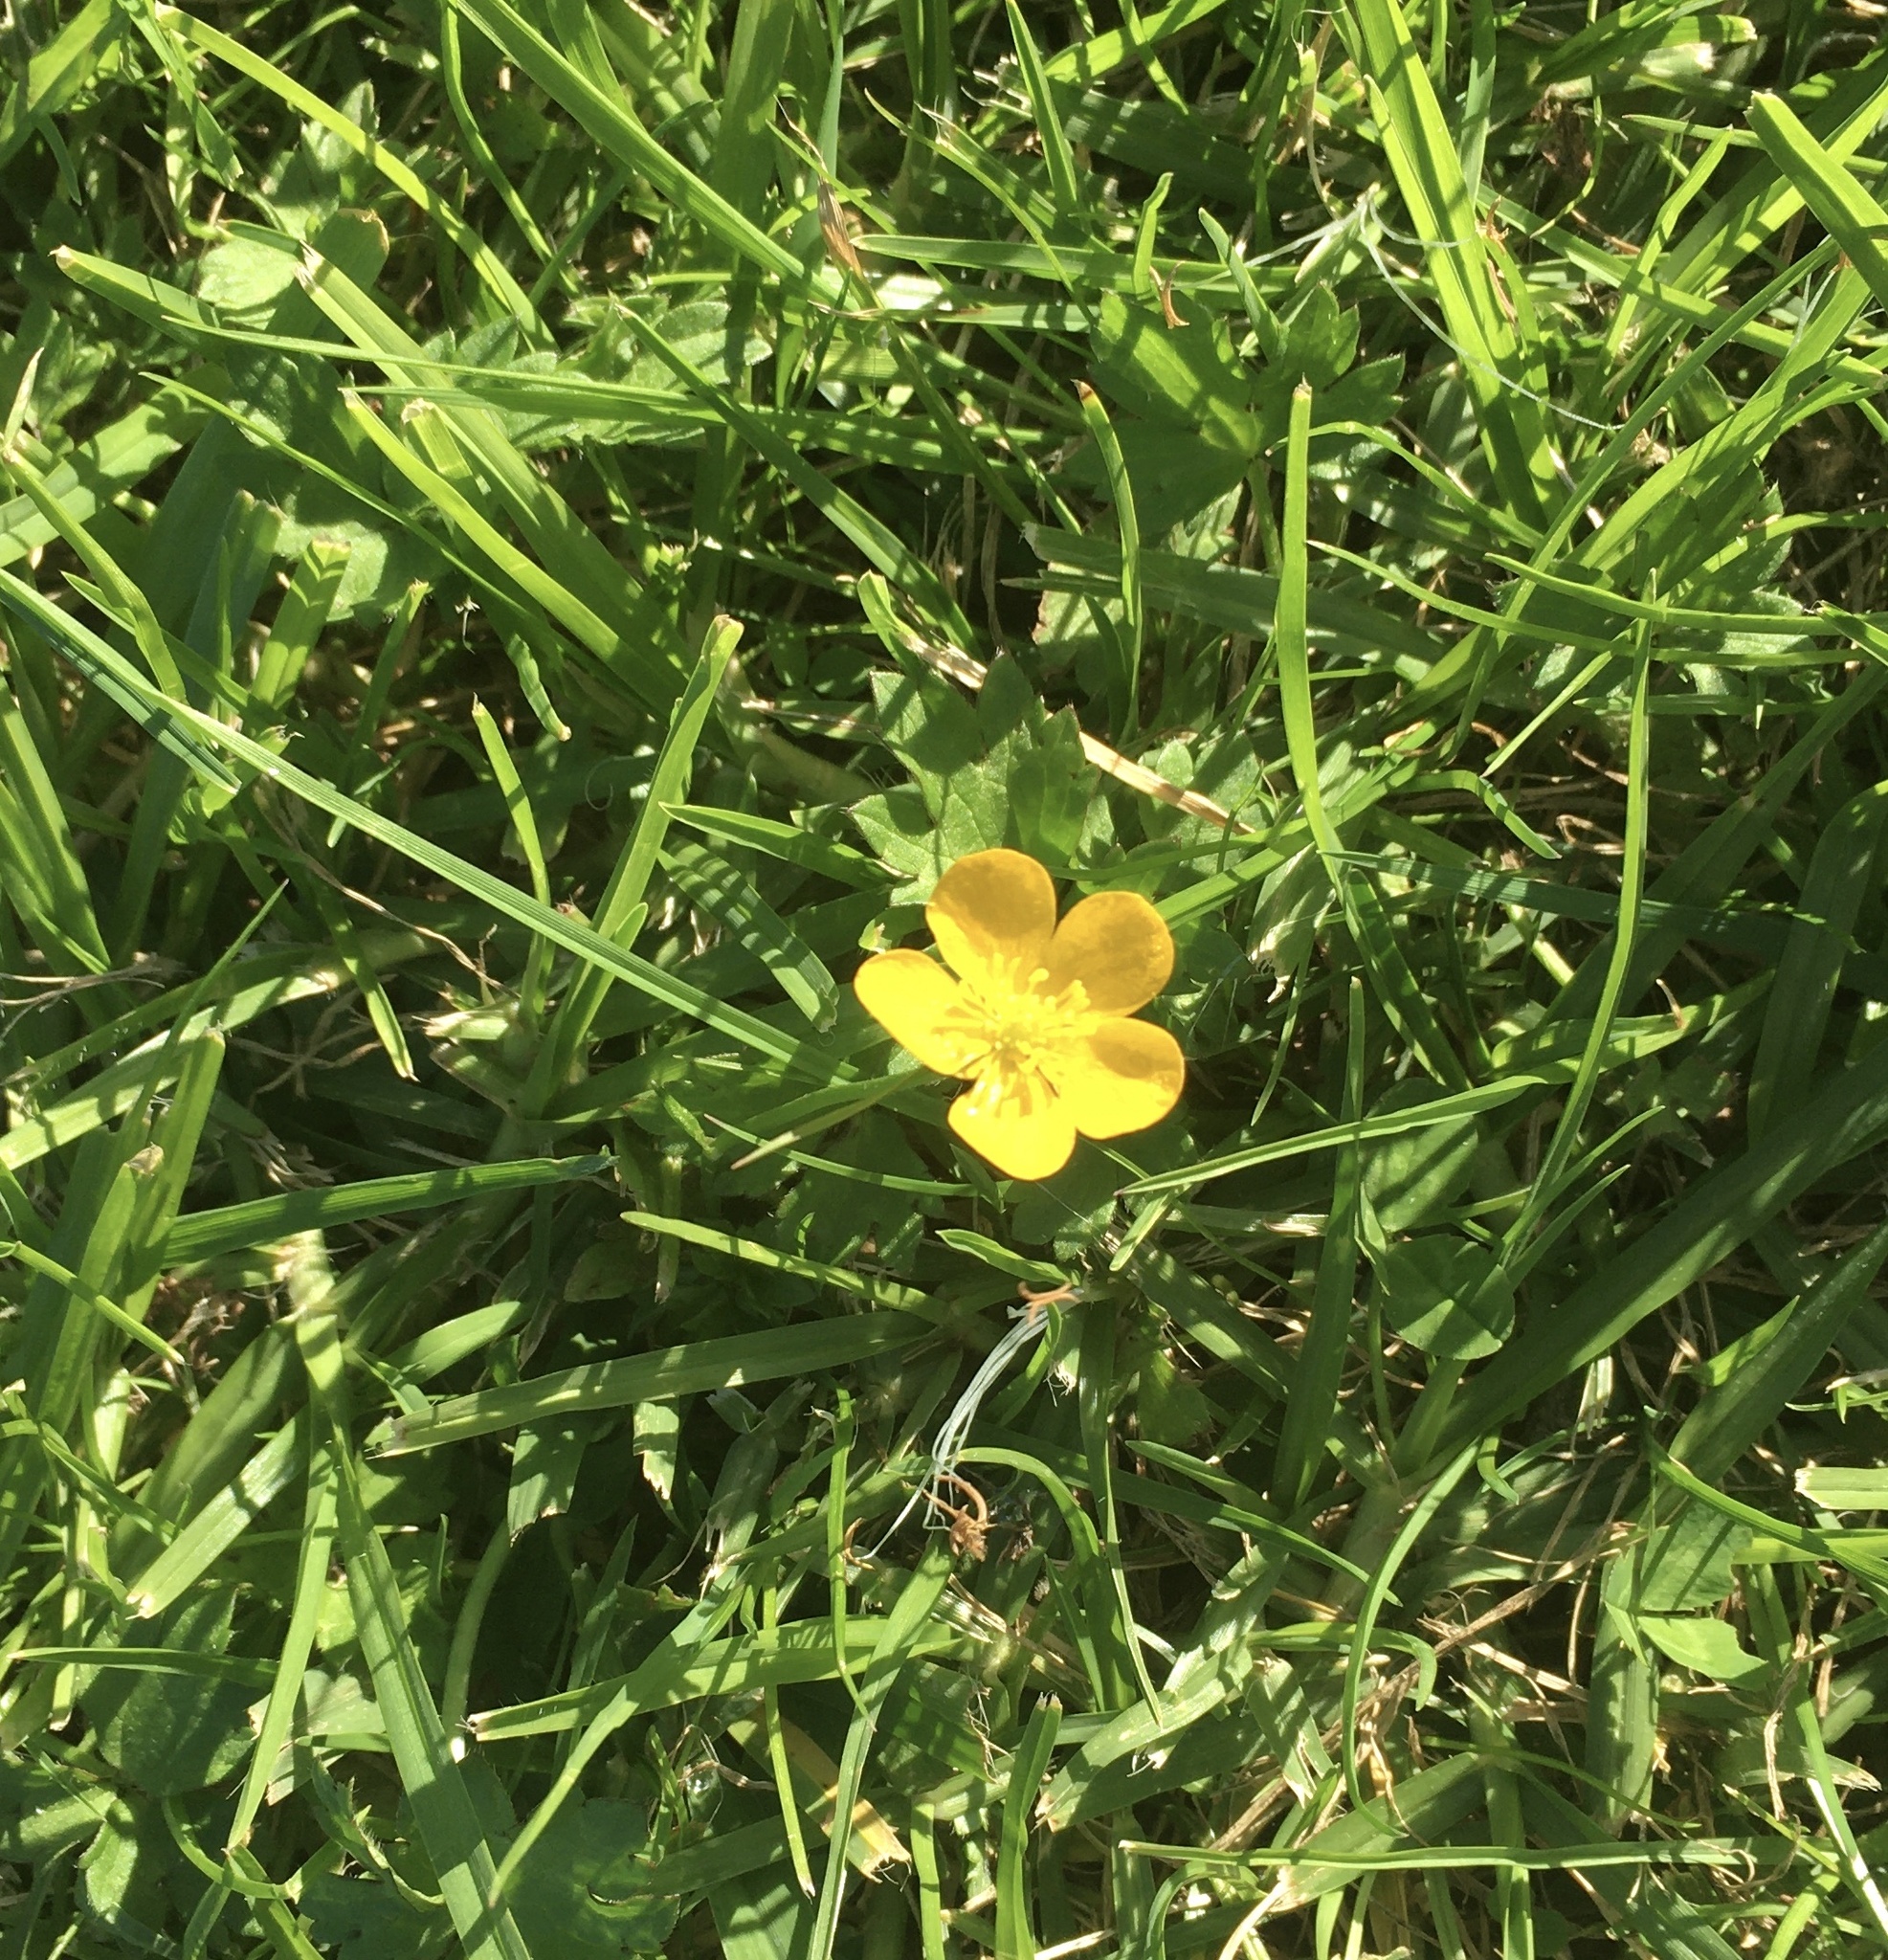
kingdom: Plantae
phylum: Tracheophyta
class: Magnoliopsida
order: Ranunculales
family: Ranunculaceae
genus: Ranunculus
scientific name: Ranunculus repens
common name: Creeping buttercup
